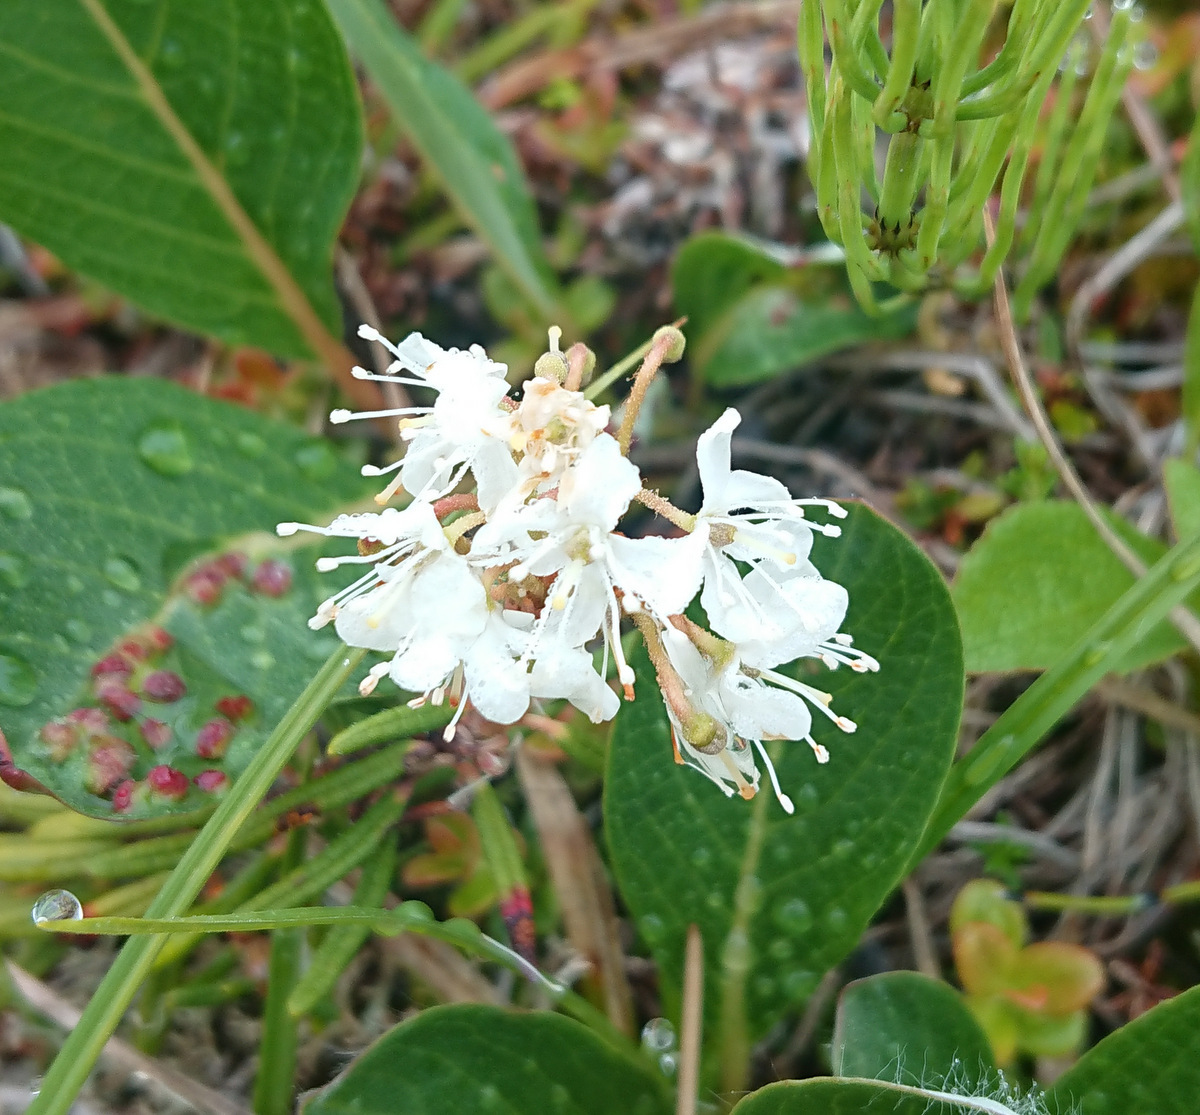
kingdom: Plantae
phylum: Tracheophyta
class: Magnoliopsida
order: Ericales
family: Ericaceae
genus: Rhododendron
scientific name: Rhododendron tomentosum
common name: Marsh labrador tea
